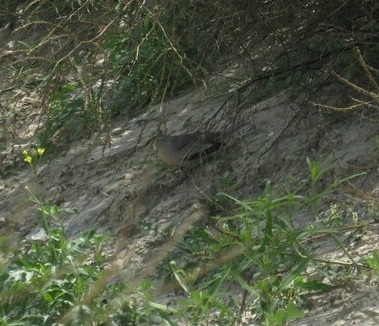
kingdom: Animalia
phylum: Chordata
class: Aves
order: Columbiformes
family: Columbidae
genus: Columbina
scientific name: Columbina picui
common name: Picui ground dove
